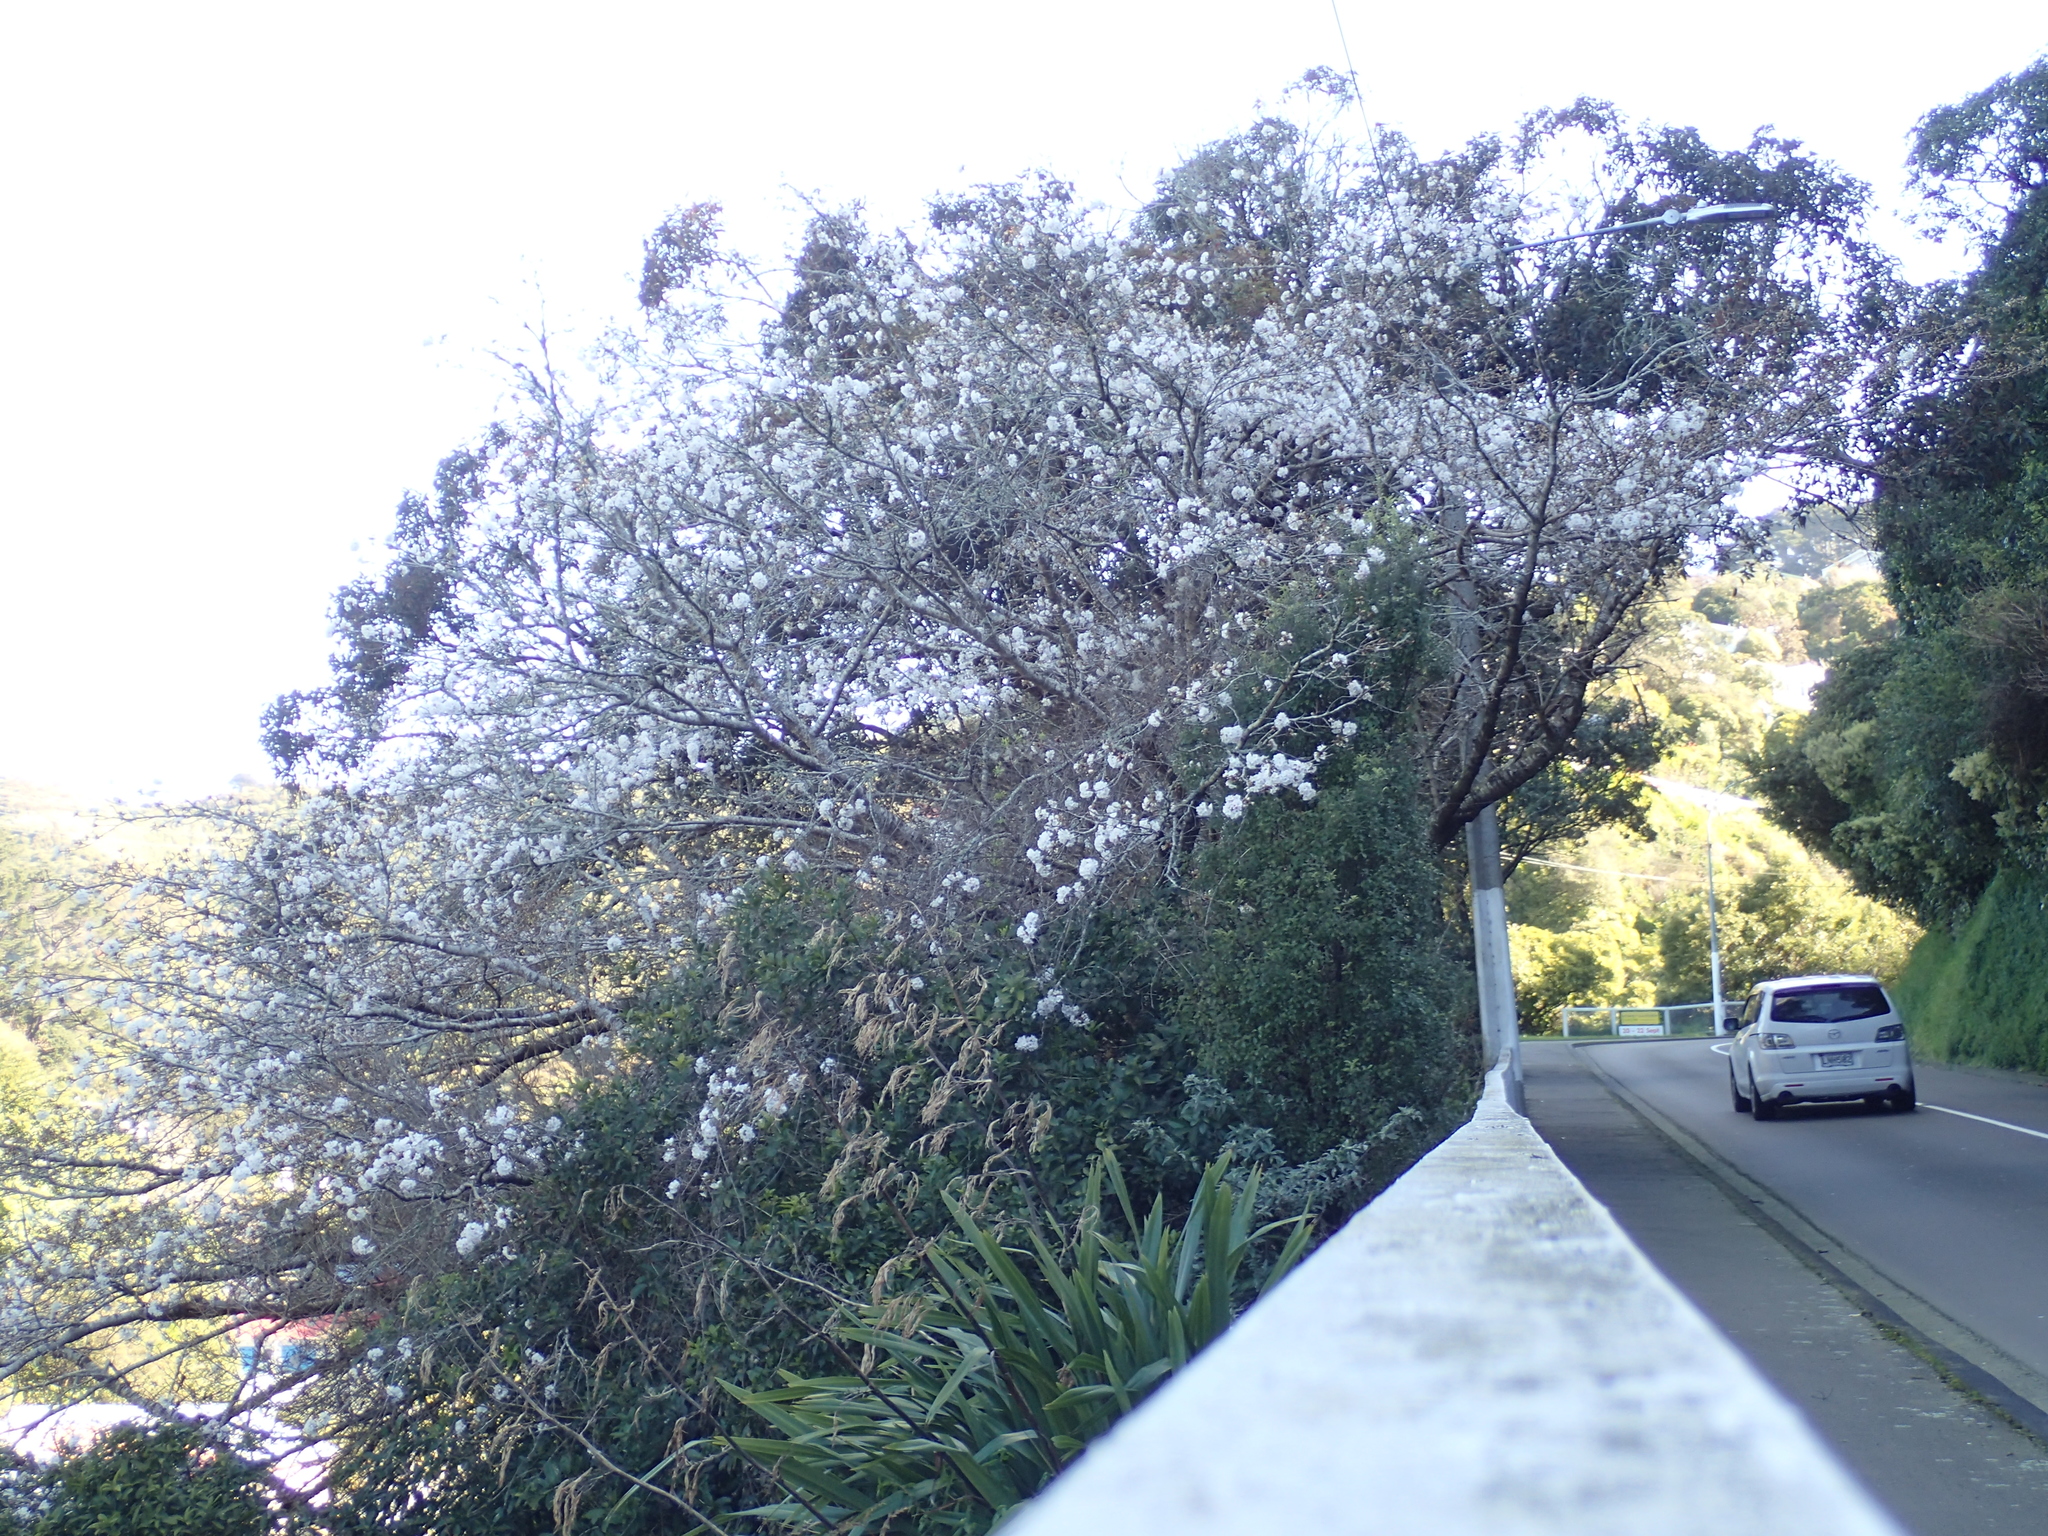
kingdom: Plantae
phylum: Tracheophyta
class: Magnoliopsida
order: Rosales
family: Rosaceae
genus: Prunus
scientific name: Prunus serrulata
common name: Japanese cherry
